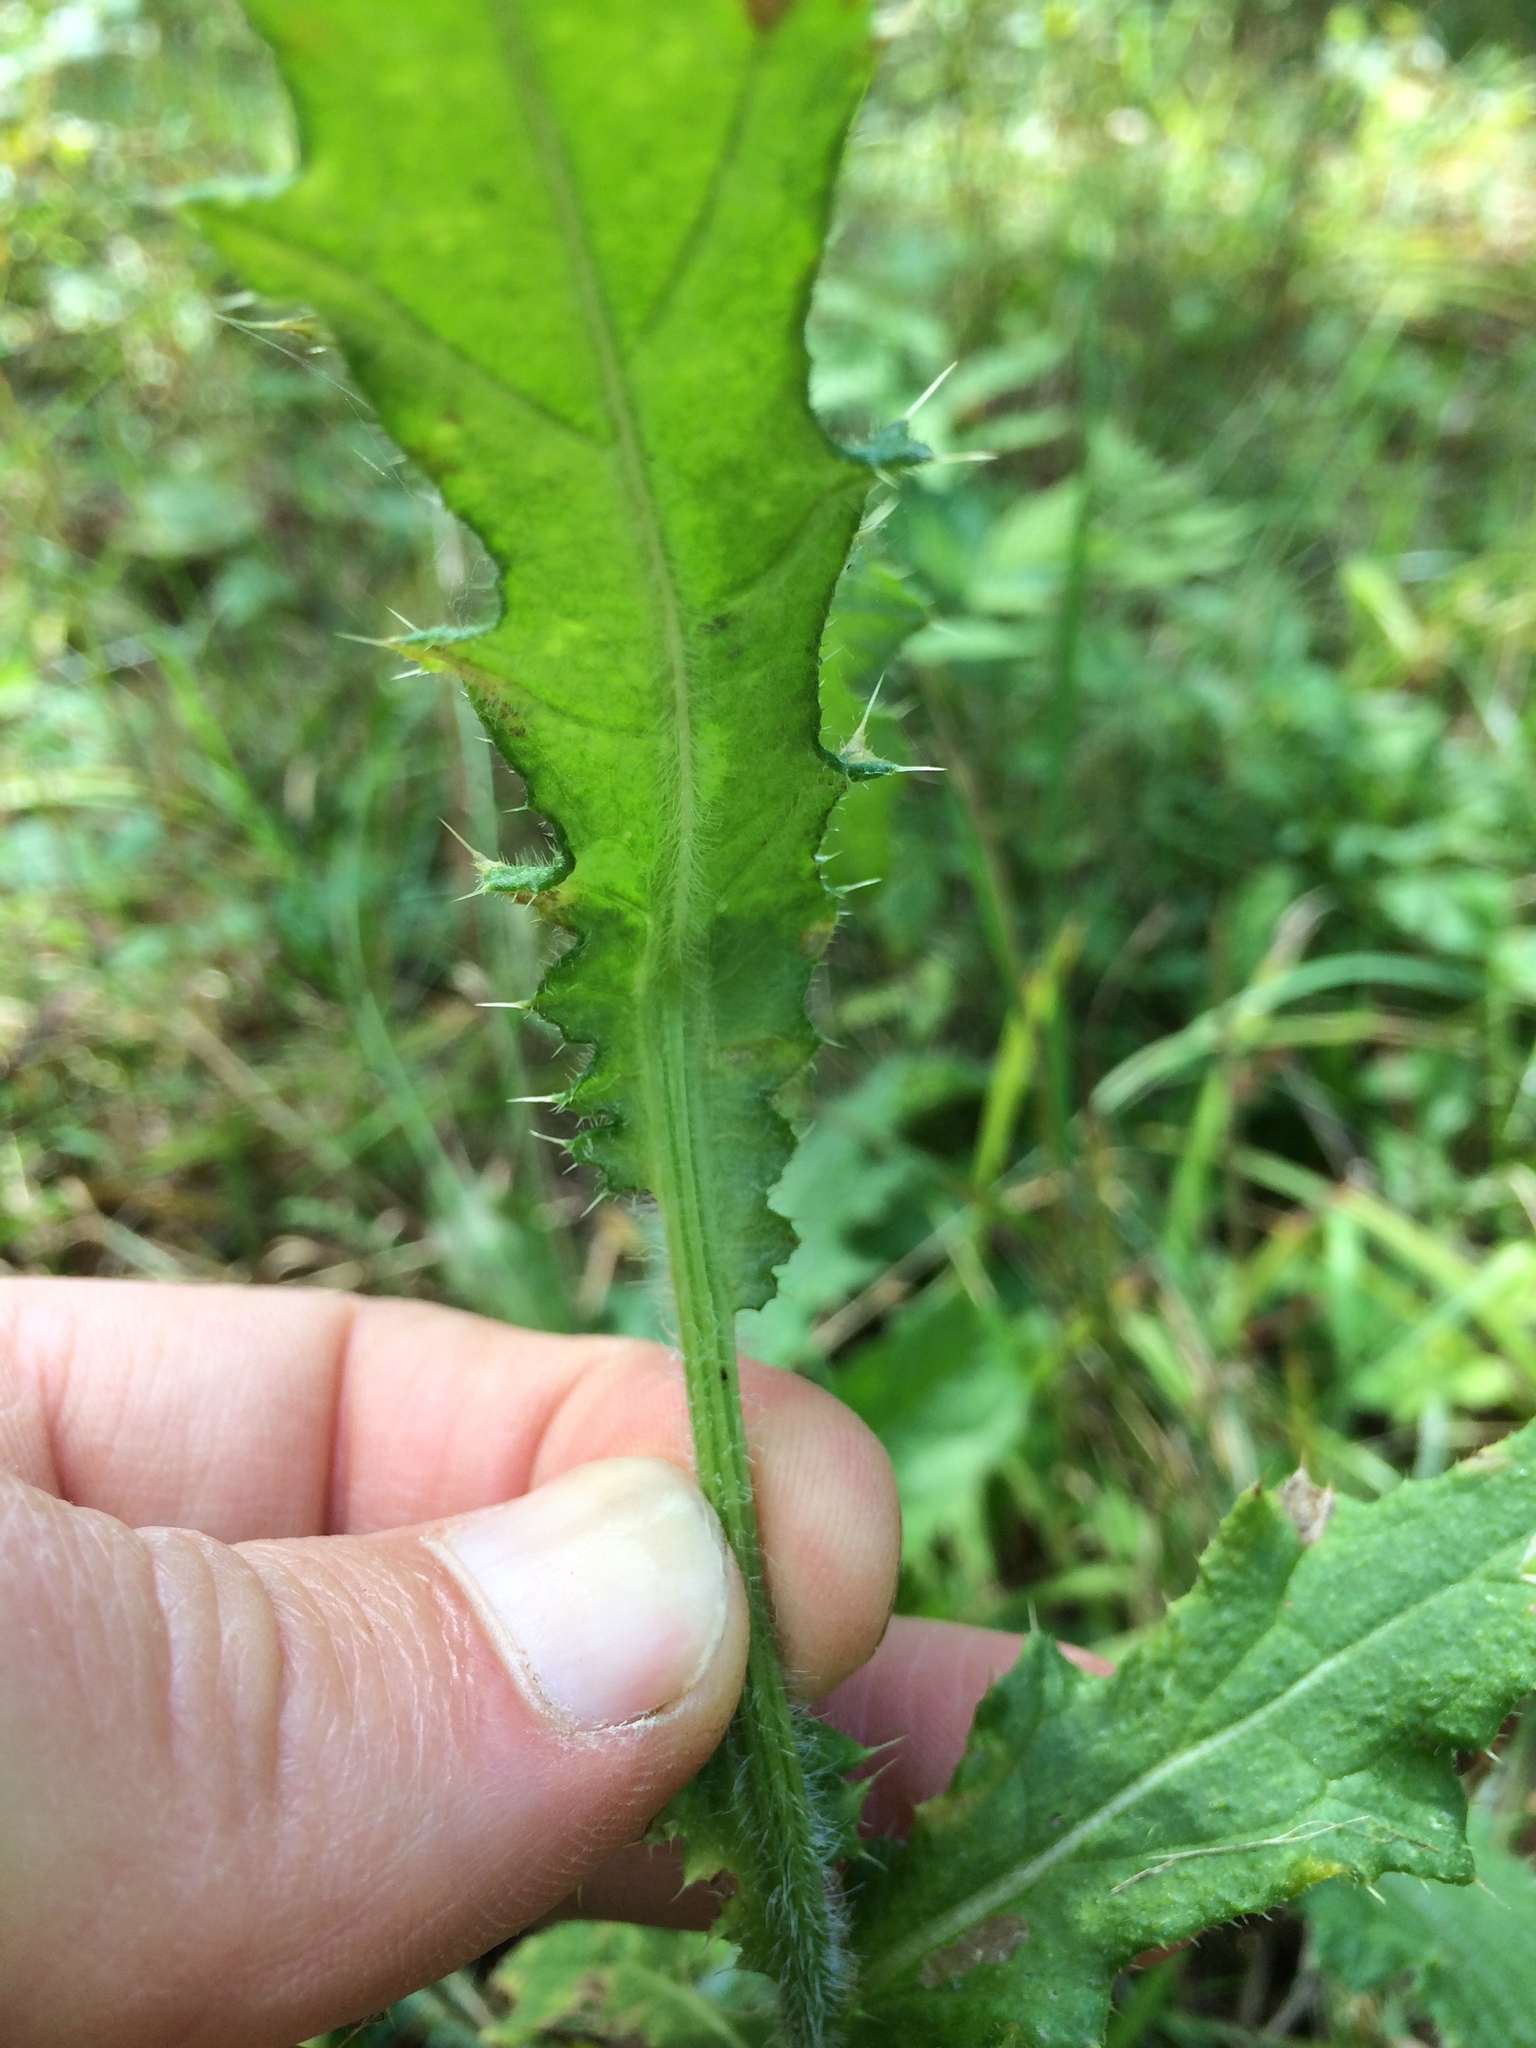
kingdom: Plantae
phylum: Tracheophyta
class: Magnoliopsida
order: Asterales
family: Asteraceae
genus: Cirsium
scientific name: Cirsium vulgare
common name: Bull thistle
